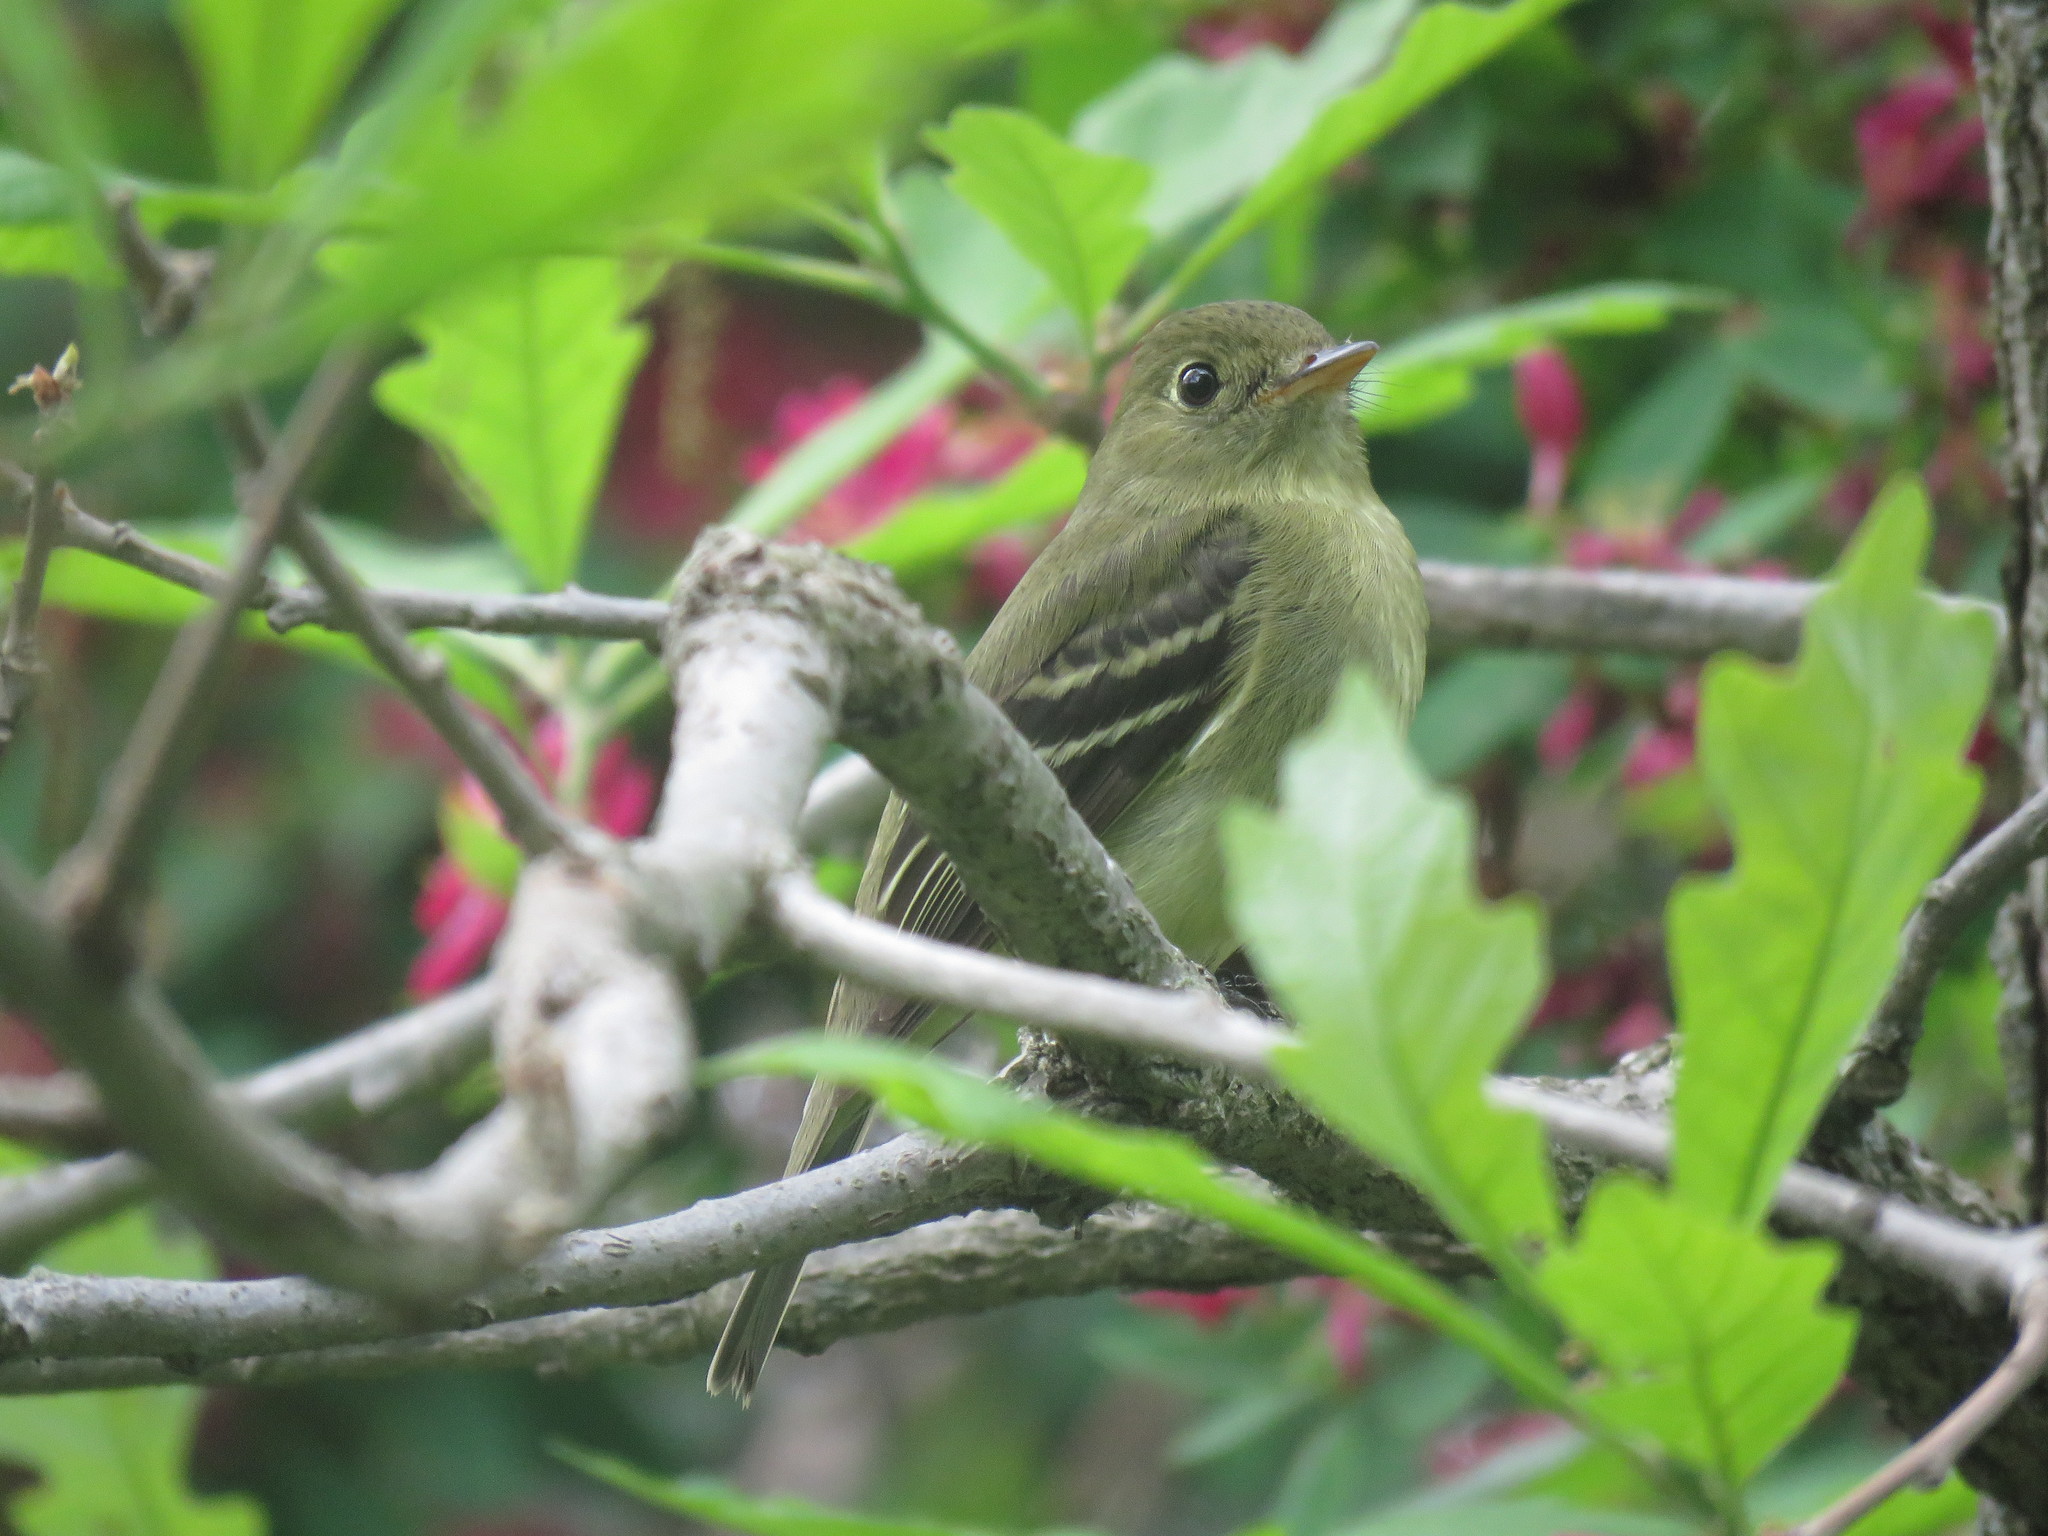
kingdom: Animalia
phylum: Chordata
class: Aves
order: Passeriformes
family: Tyrannidae
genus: Empidonax
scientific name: Empidonax flaviventris
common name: Yellow-bellied flycatcher
